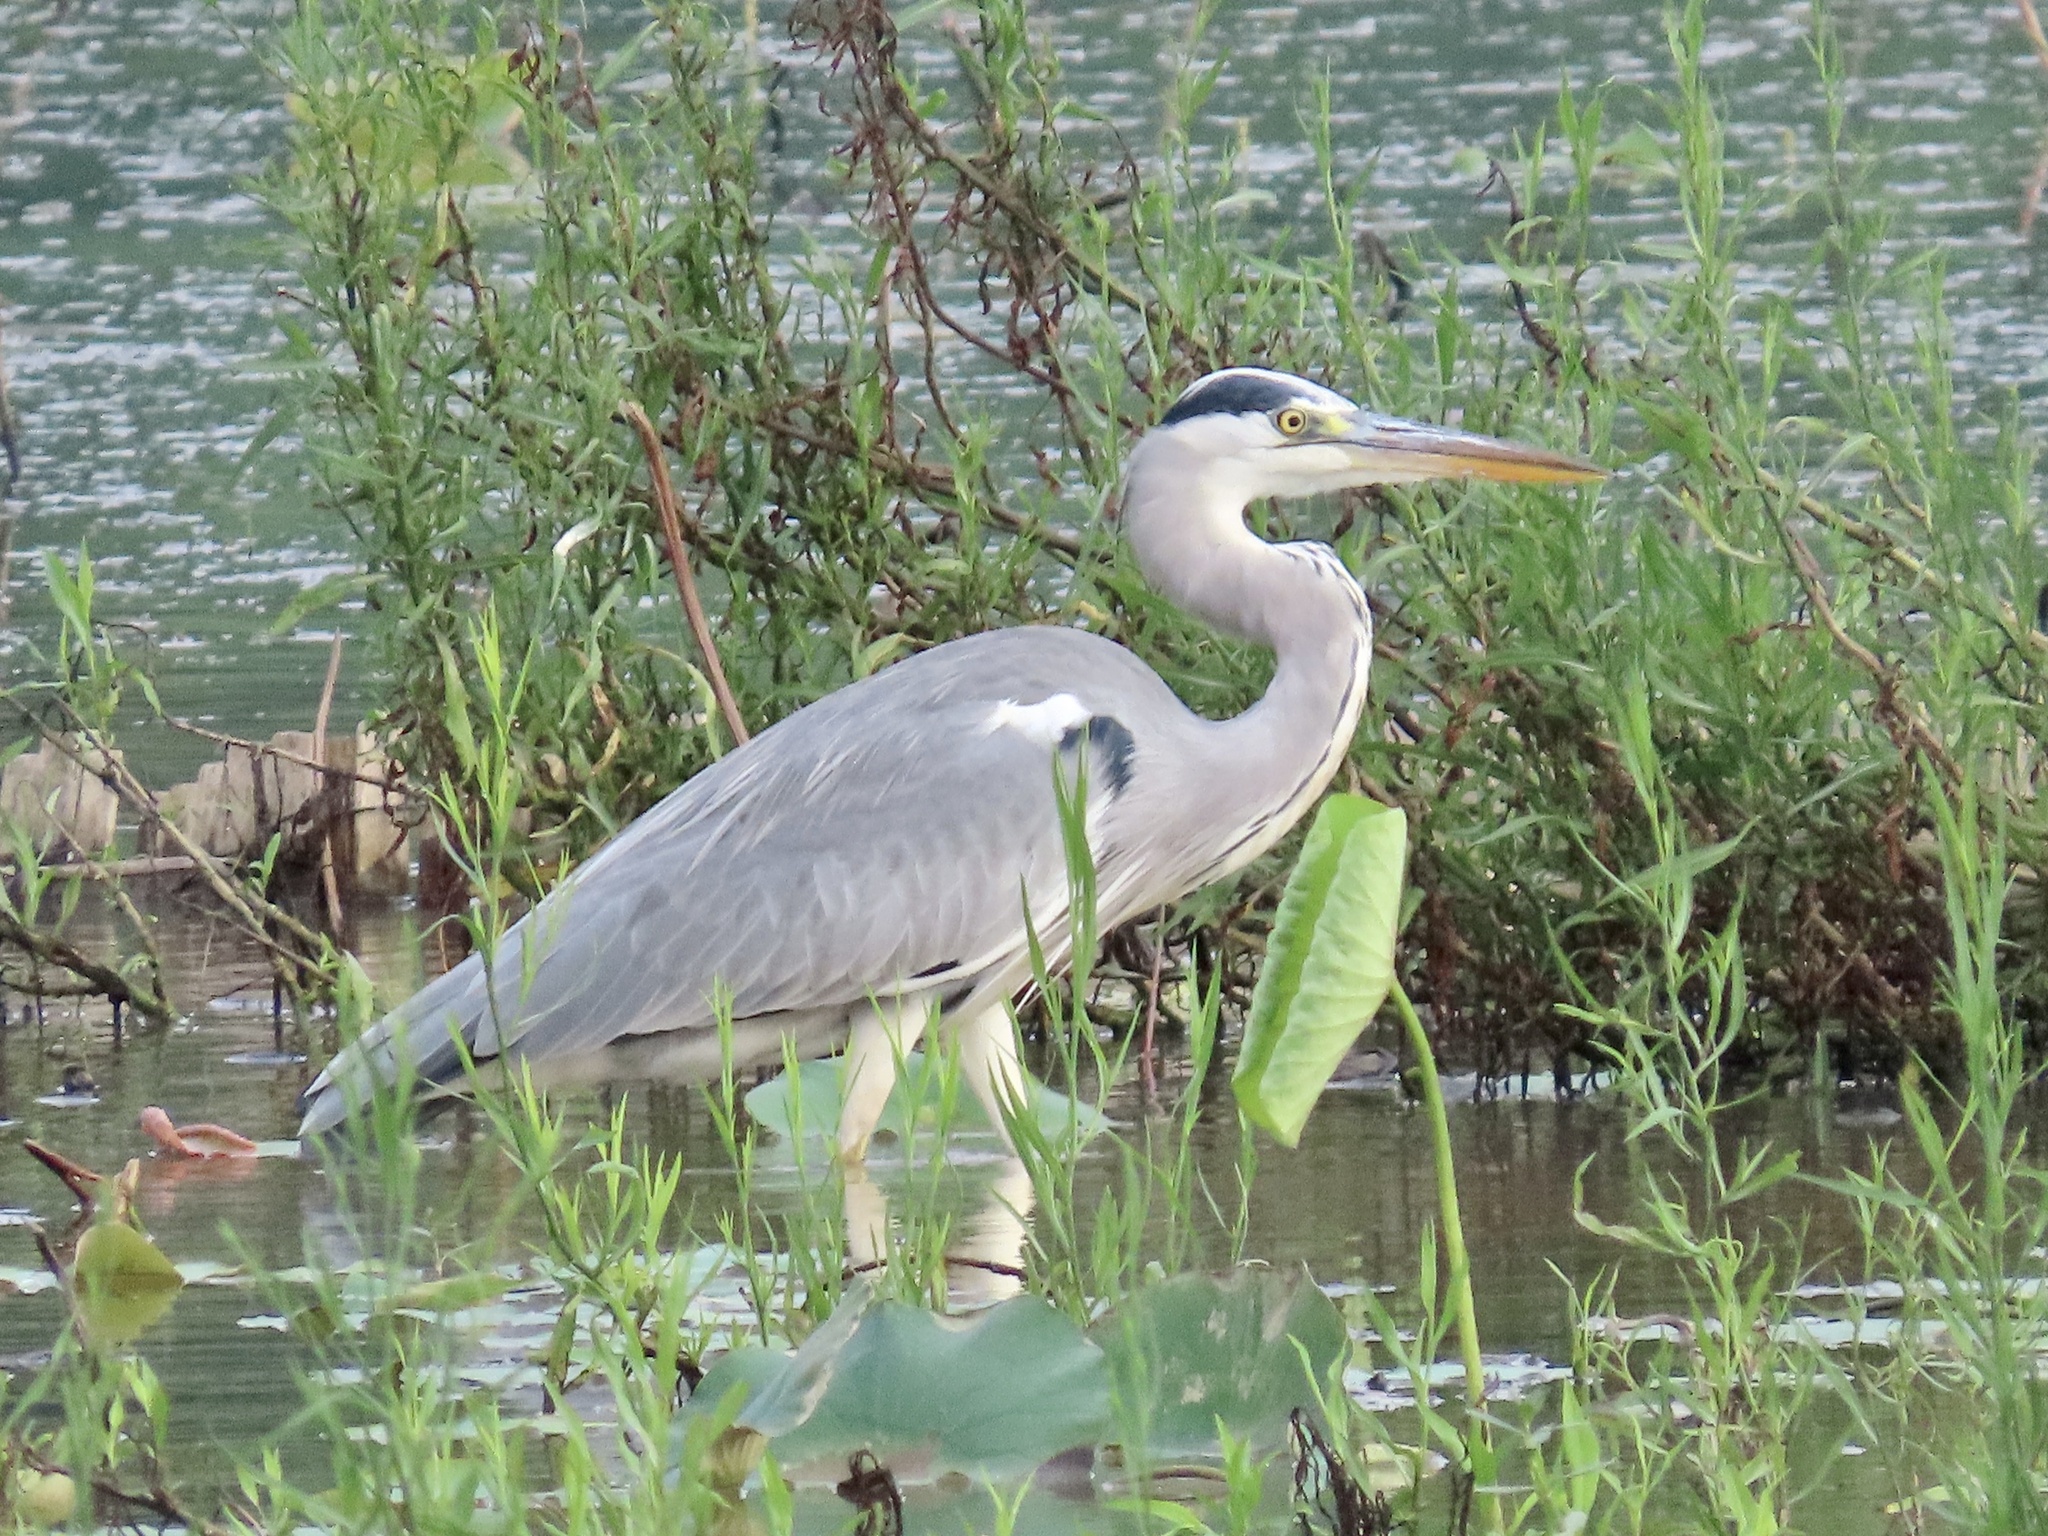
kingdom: Animalia
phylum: Chordata
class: Aves
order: Pelecaniformes
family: Ardeidae
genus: Ardea
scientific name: Ardea cinerea
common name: Grey heron
